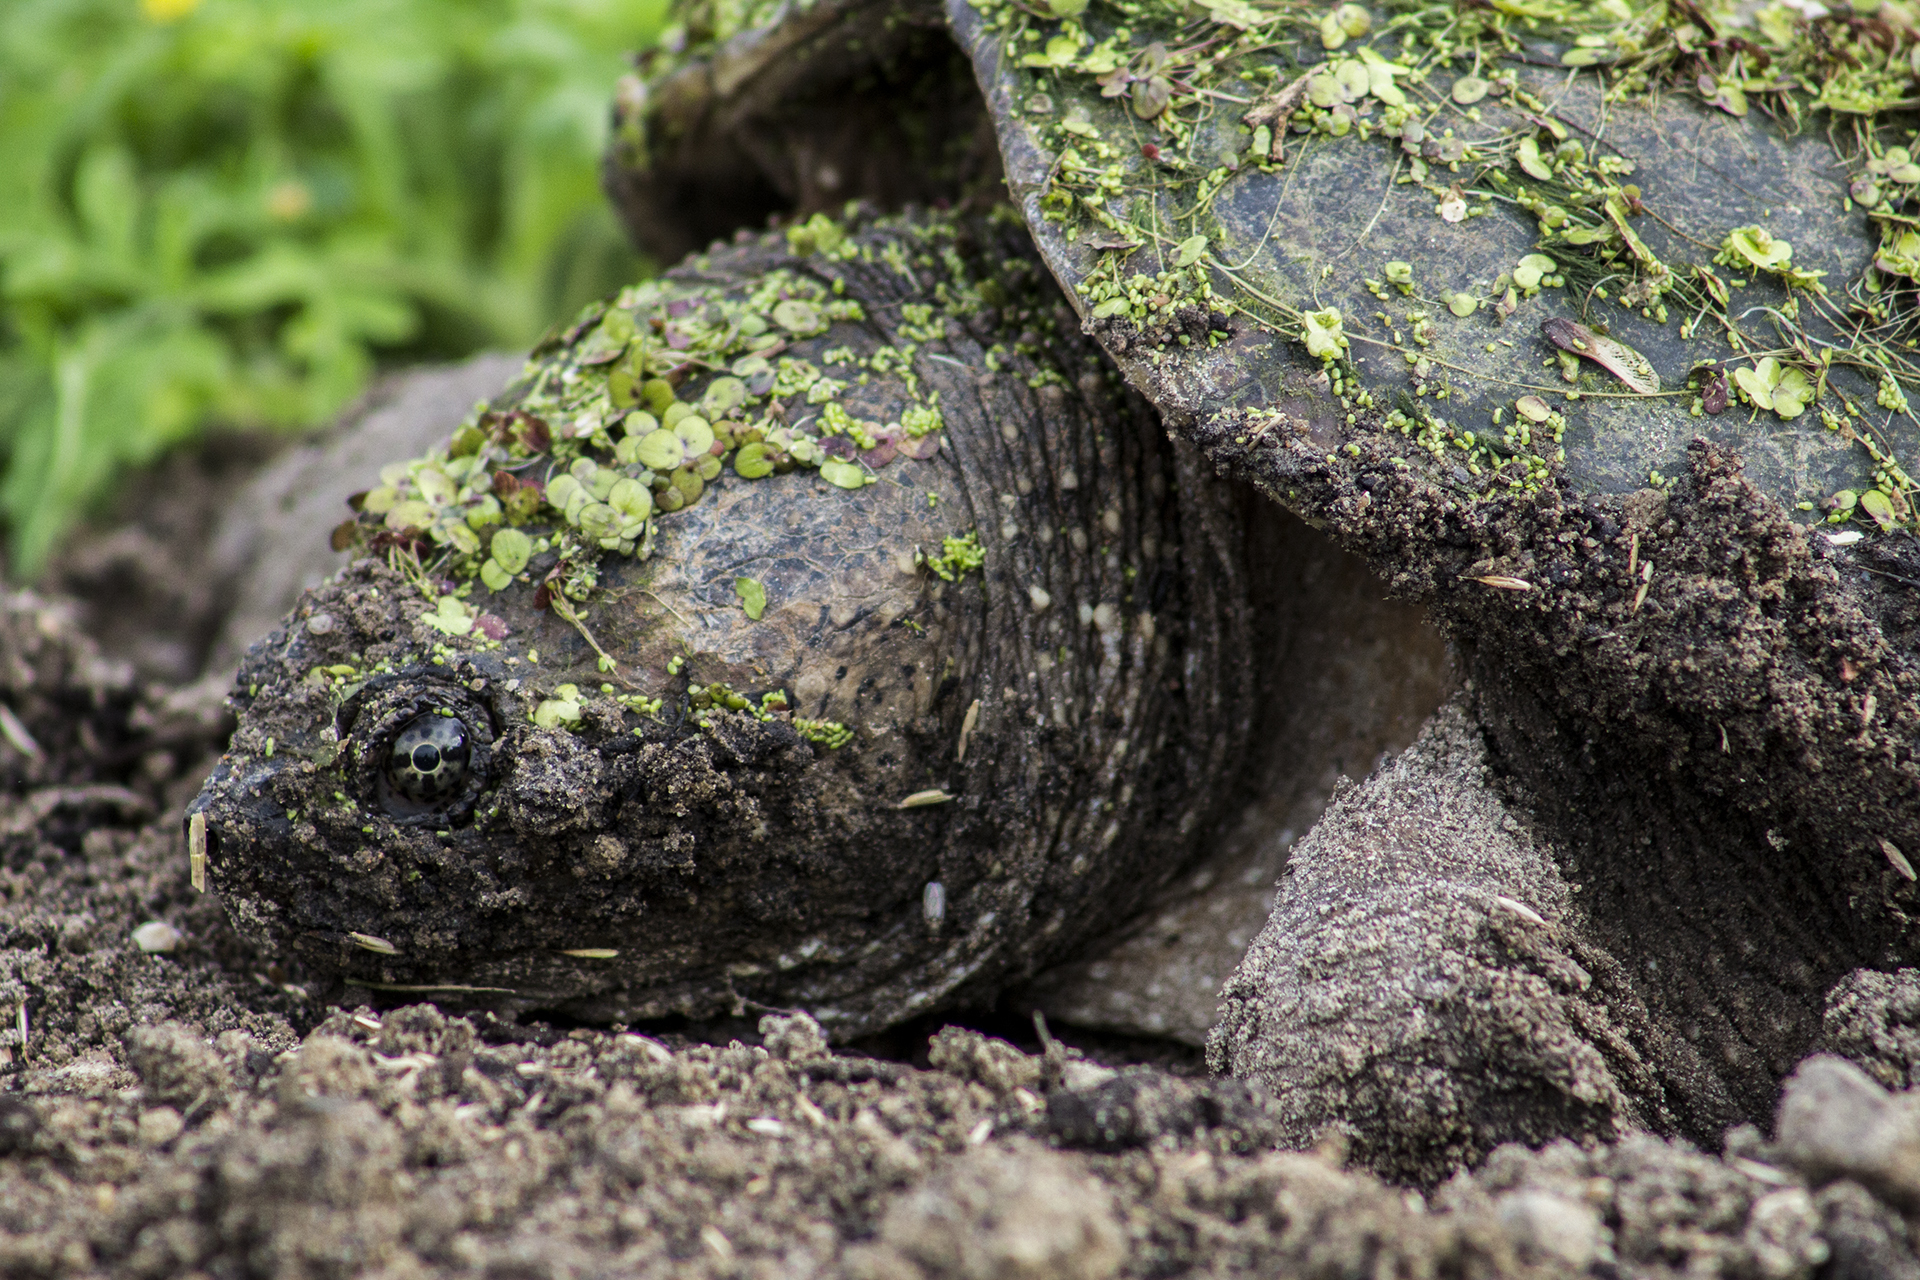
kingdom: Animalia
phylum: Chordata
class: Testudines
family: Chelydridae
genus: Chelydra
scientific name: Chelydra serpentina
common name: Common snapping turtle
